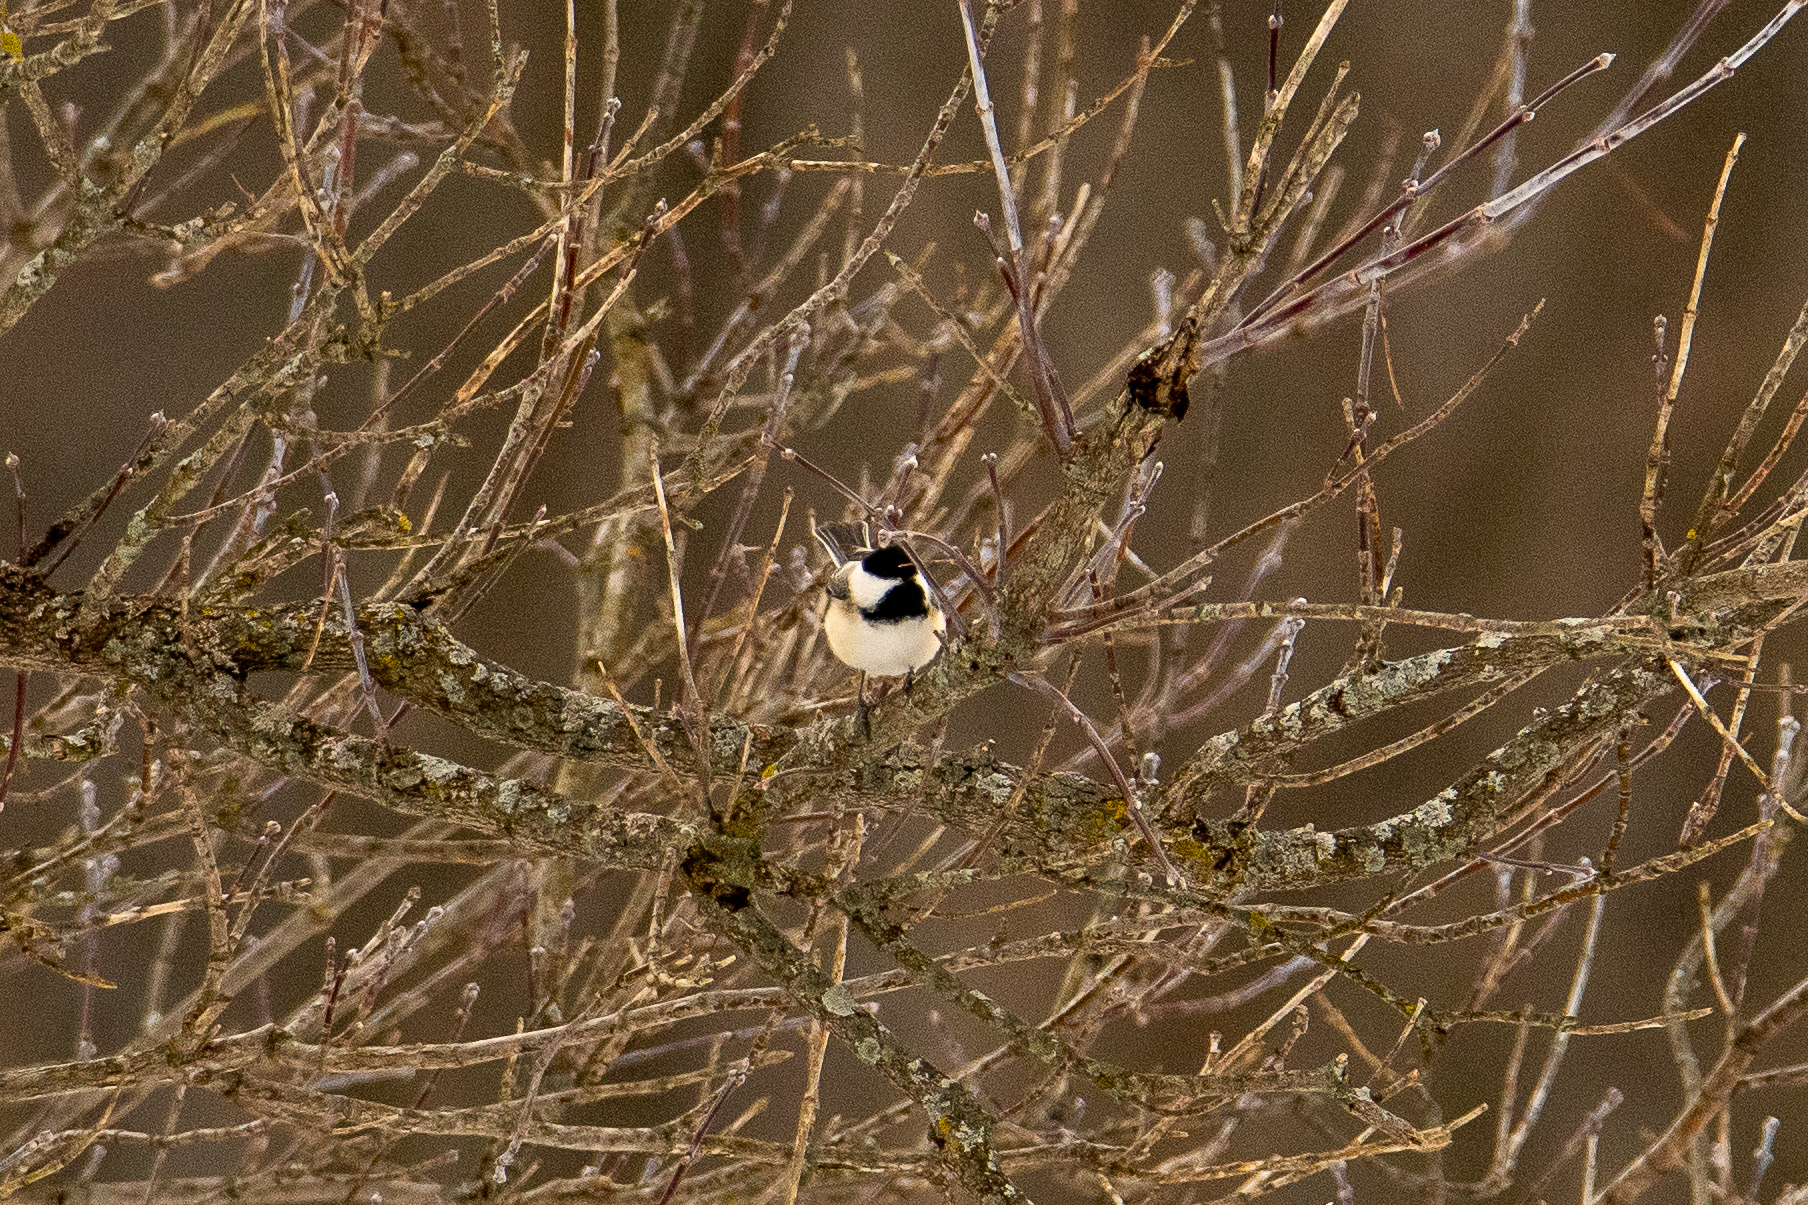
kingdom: Animalia
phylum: Chordata
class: Aves
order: Passeriformes
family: Paridae
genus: Poecile
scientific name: Poecile atricapillus
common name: Black-capped chickadee
